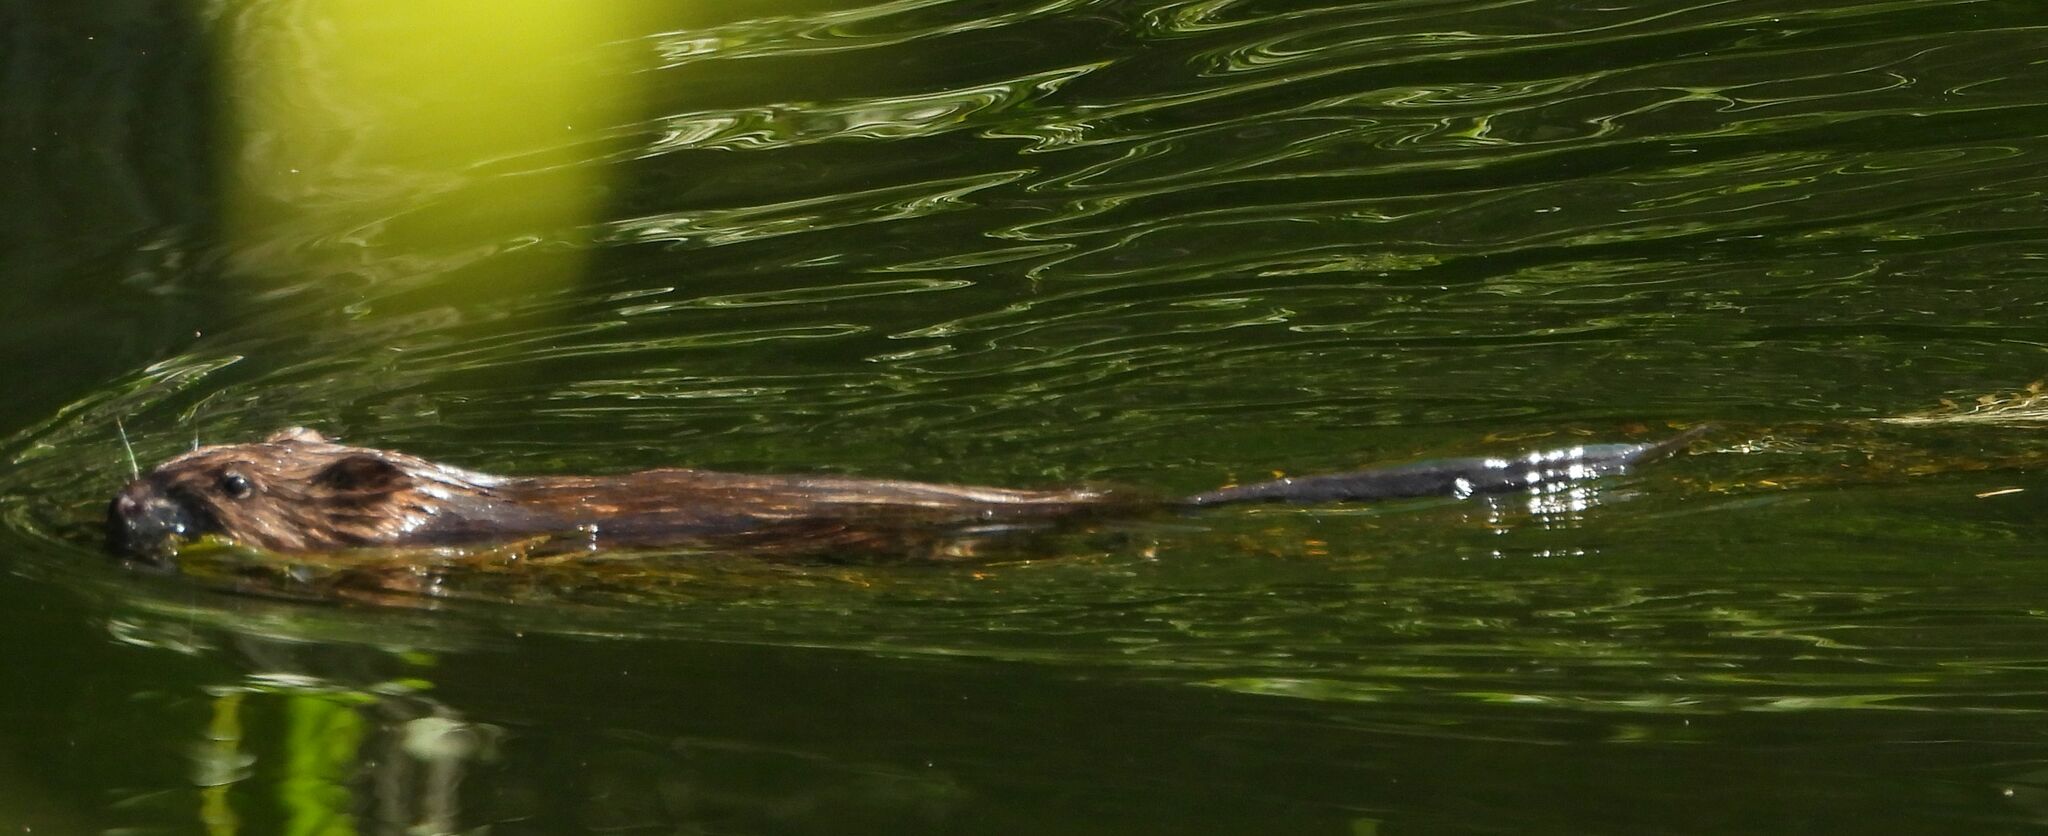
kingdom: Animalia
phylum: Chordata
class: Mammalia
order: Rodentia
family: Cricetidae
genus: Ondatra
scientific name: Ondatra zibethicus
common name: Muskrat
